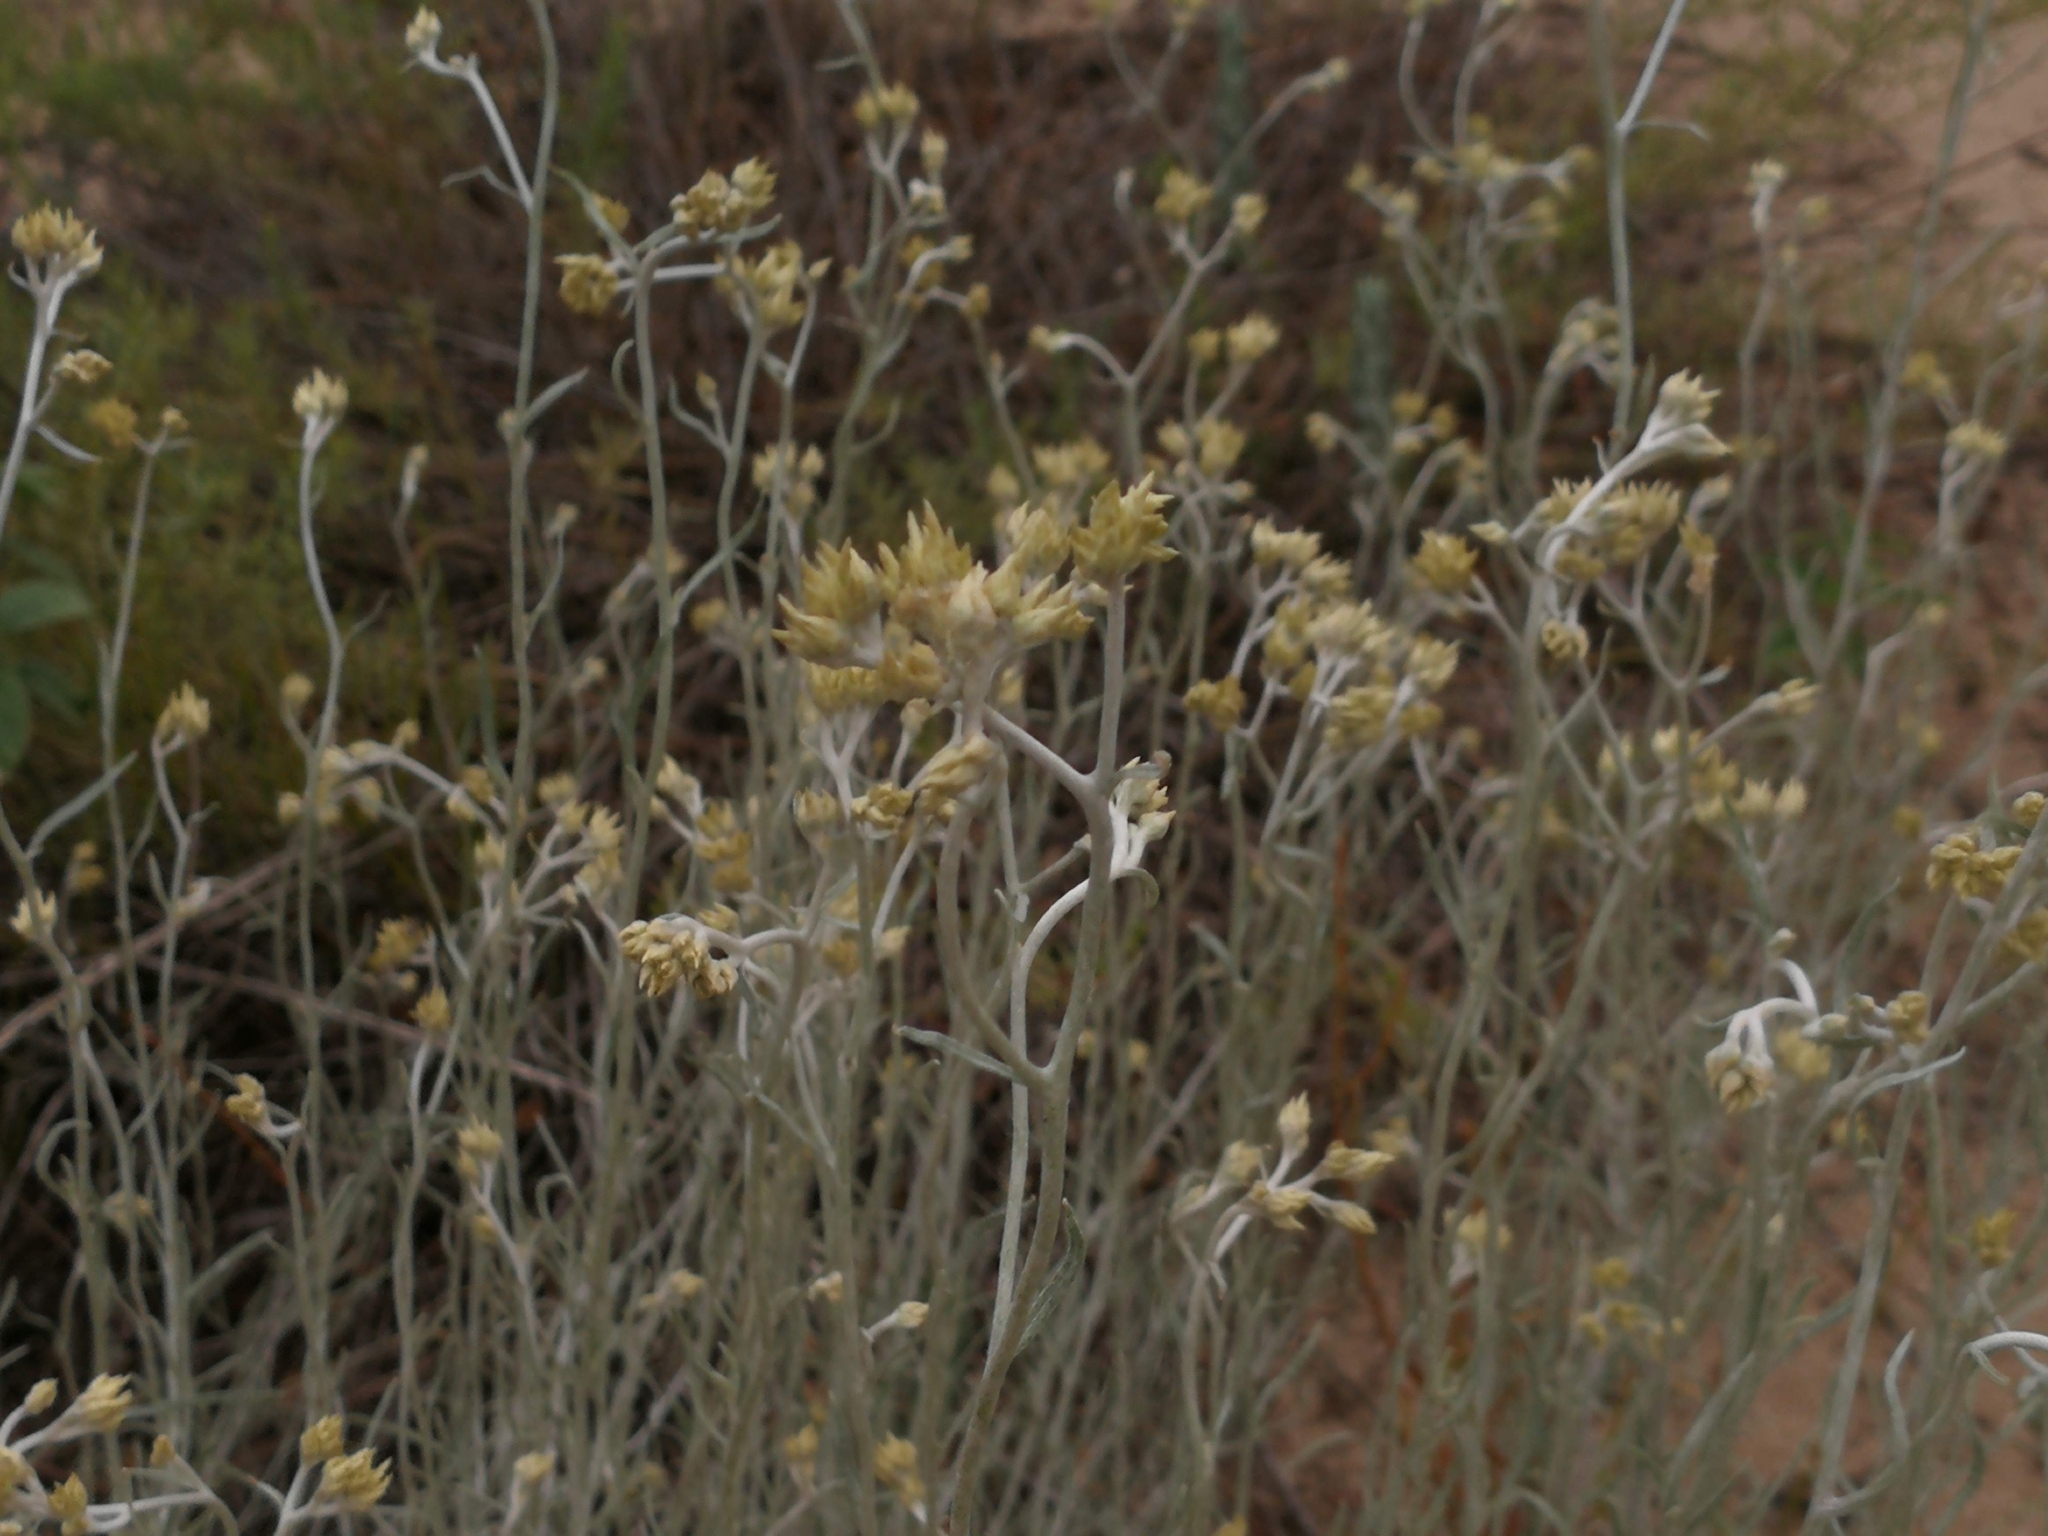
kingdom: Plantae
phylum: Tracheophyta
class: Magnoliopsida
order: Asterales
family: Asteraceae
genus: Achyrocline
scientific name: Achyrocline satureioides
